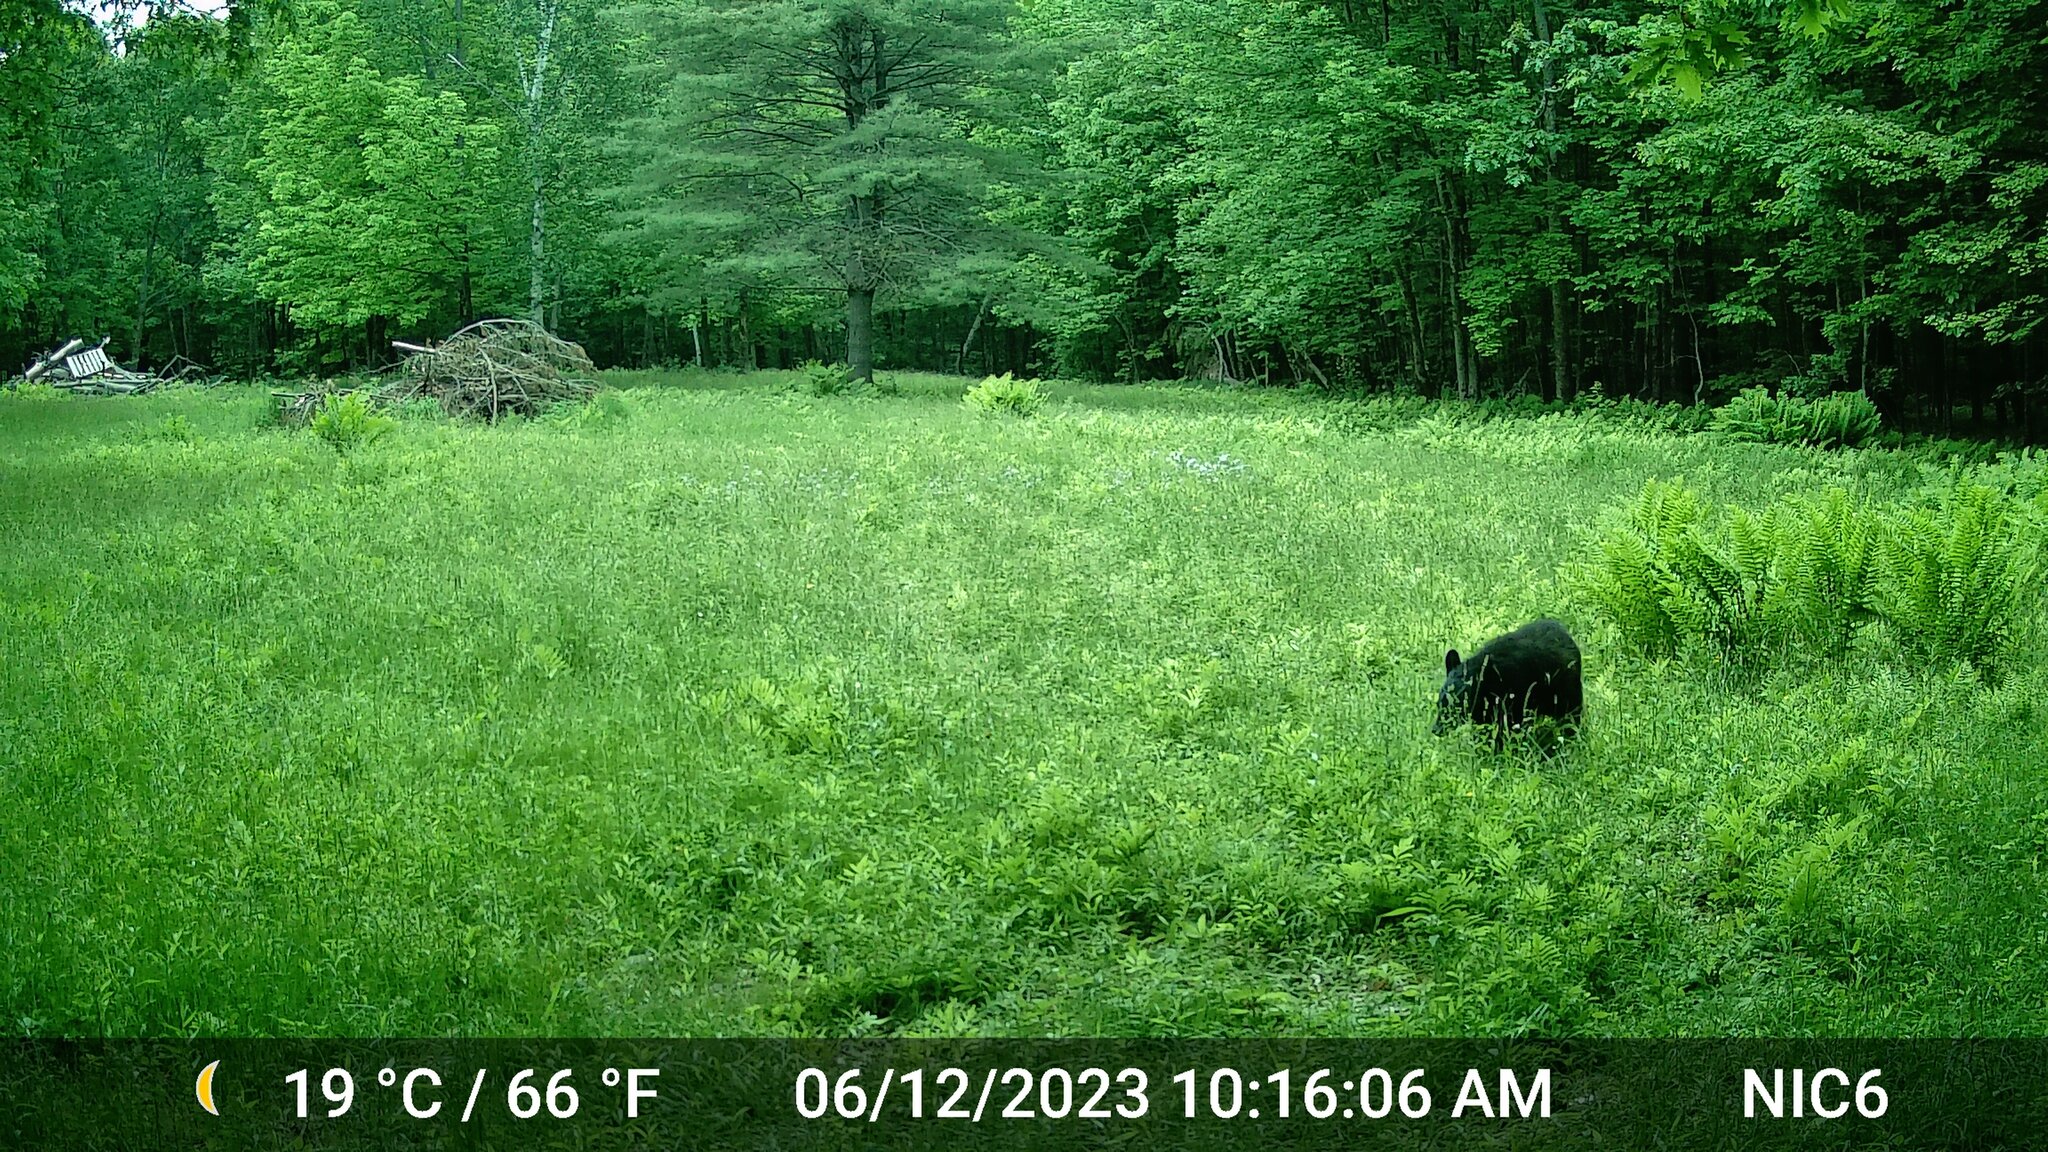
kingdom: Animalia
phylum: Chordata
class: Mammalia
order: Carnivora
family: Ursidae
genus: Ursus
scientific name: Ursus americanus
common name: American black bear
